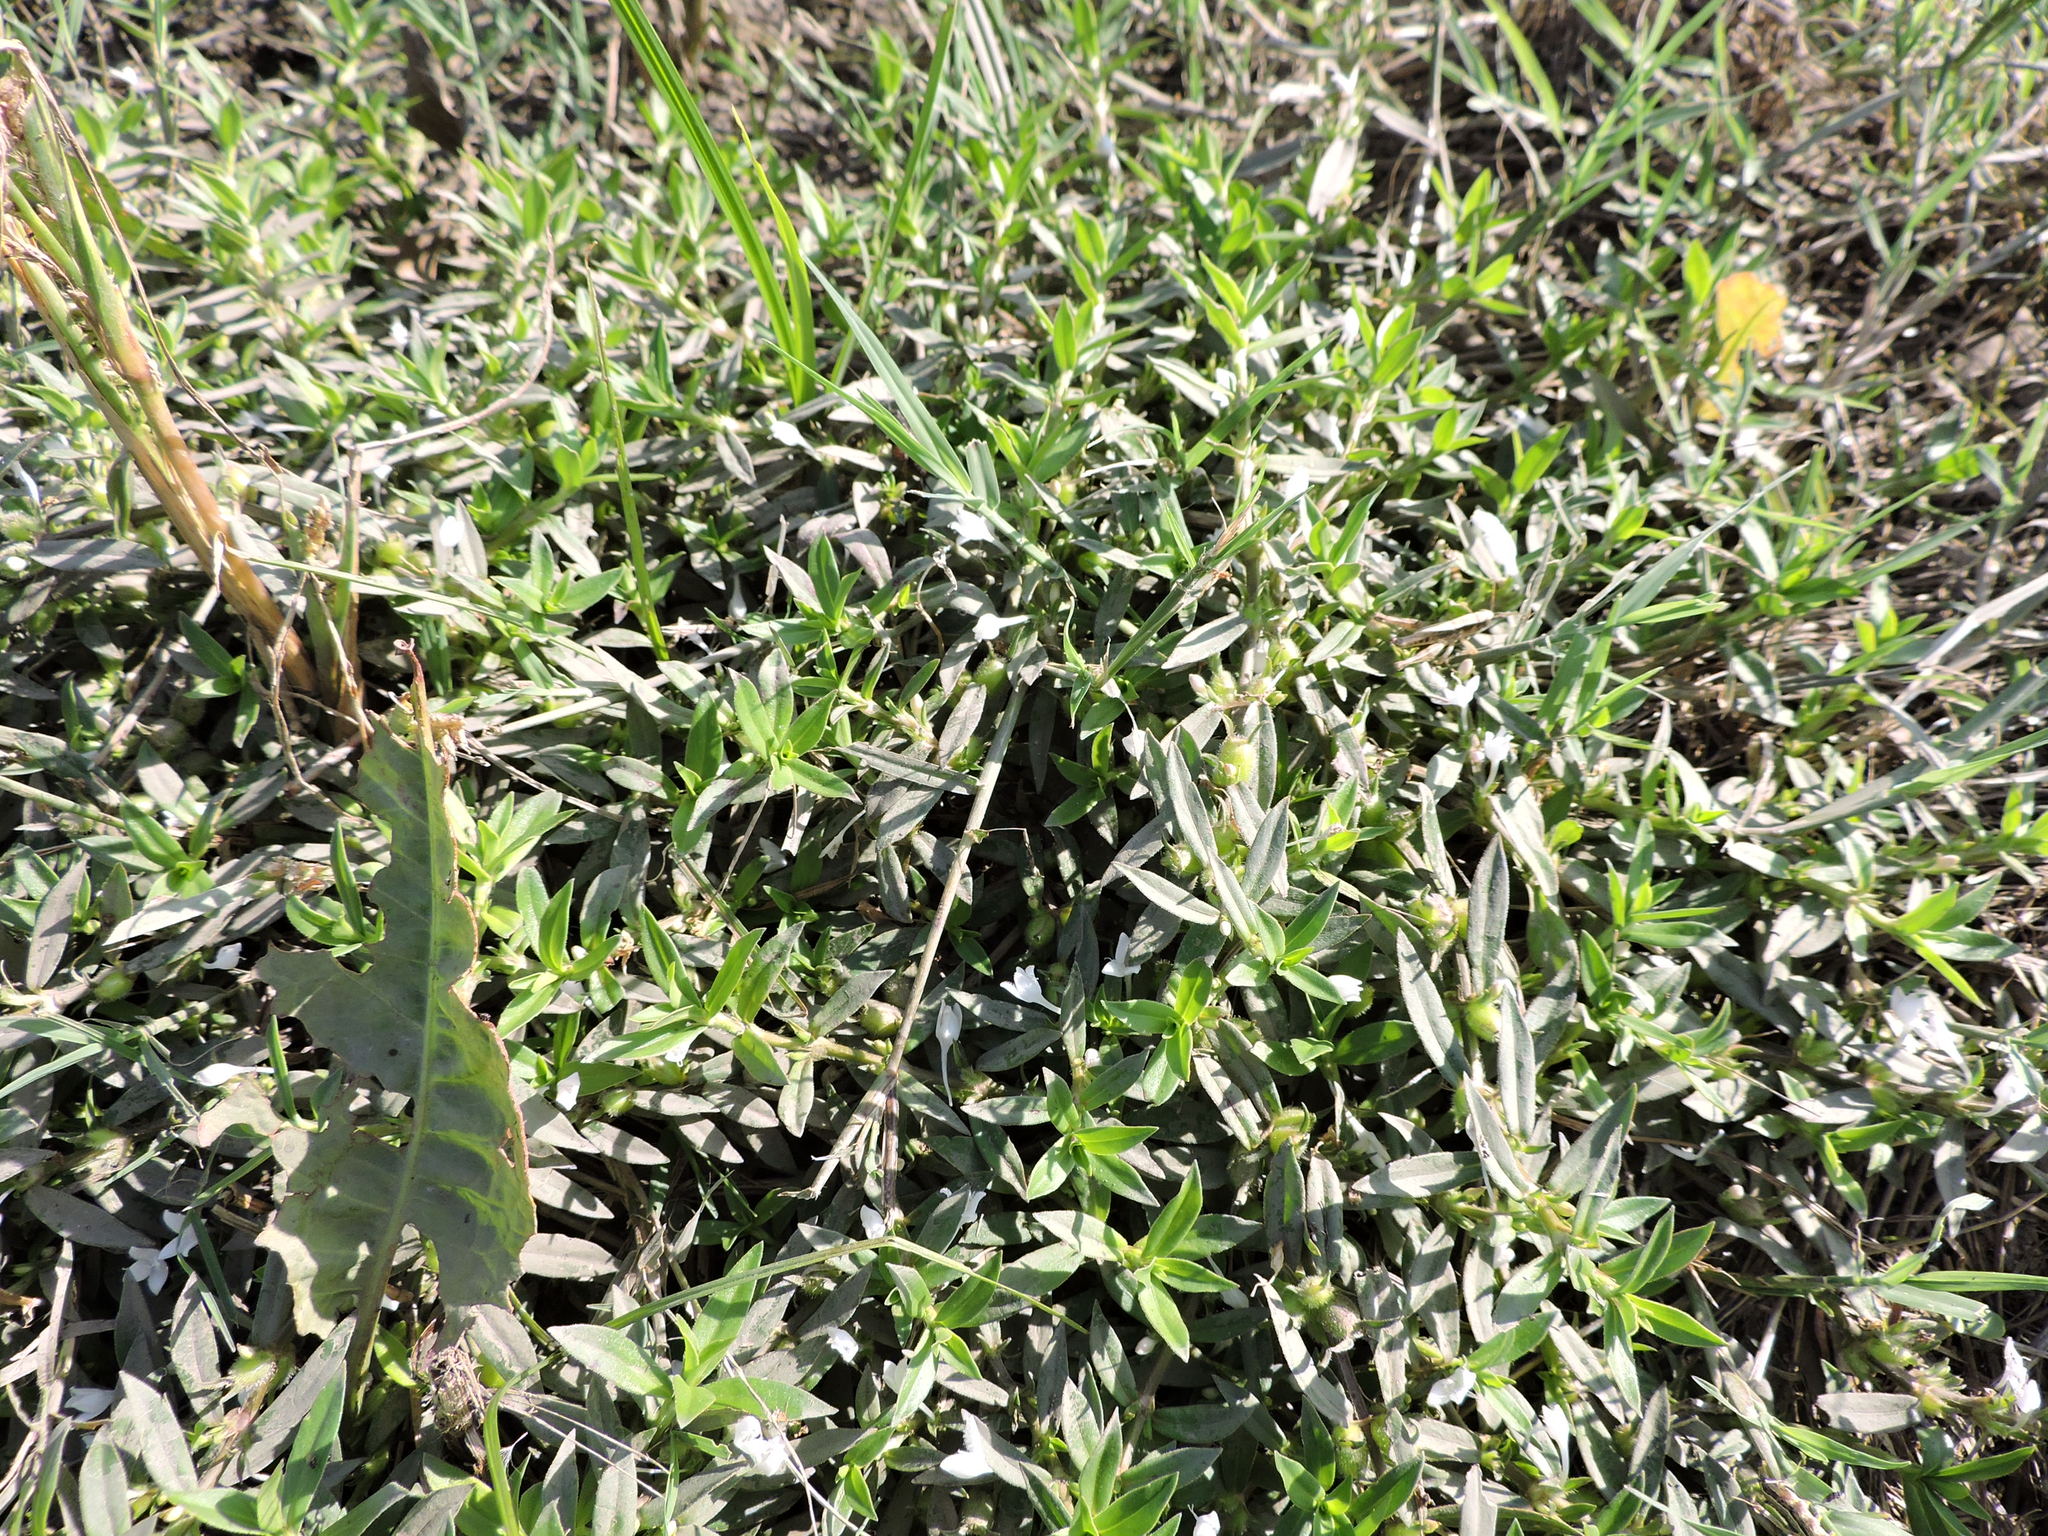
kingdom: Plantae
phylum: Tracheophyta
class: Magnoliopsida
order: Gentianales
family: Rubiaceae
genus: Diodia
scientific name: Diodia virginiana
